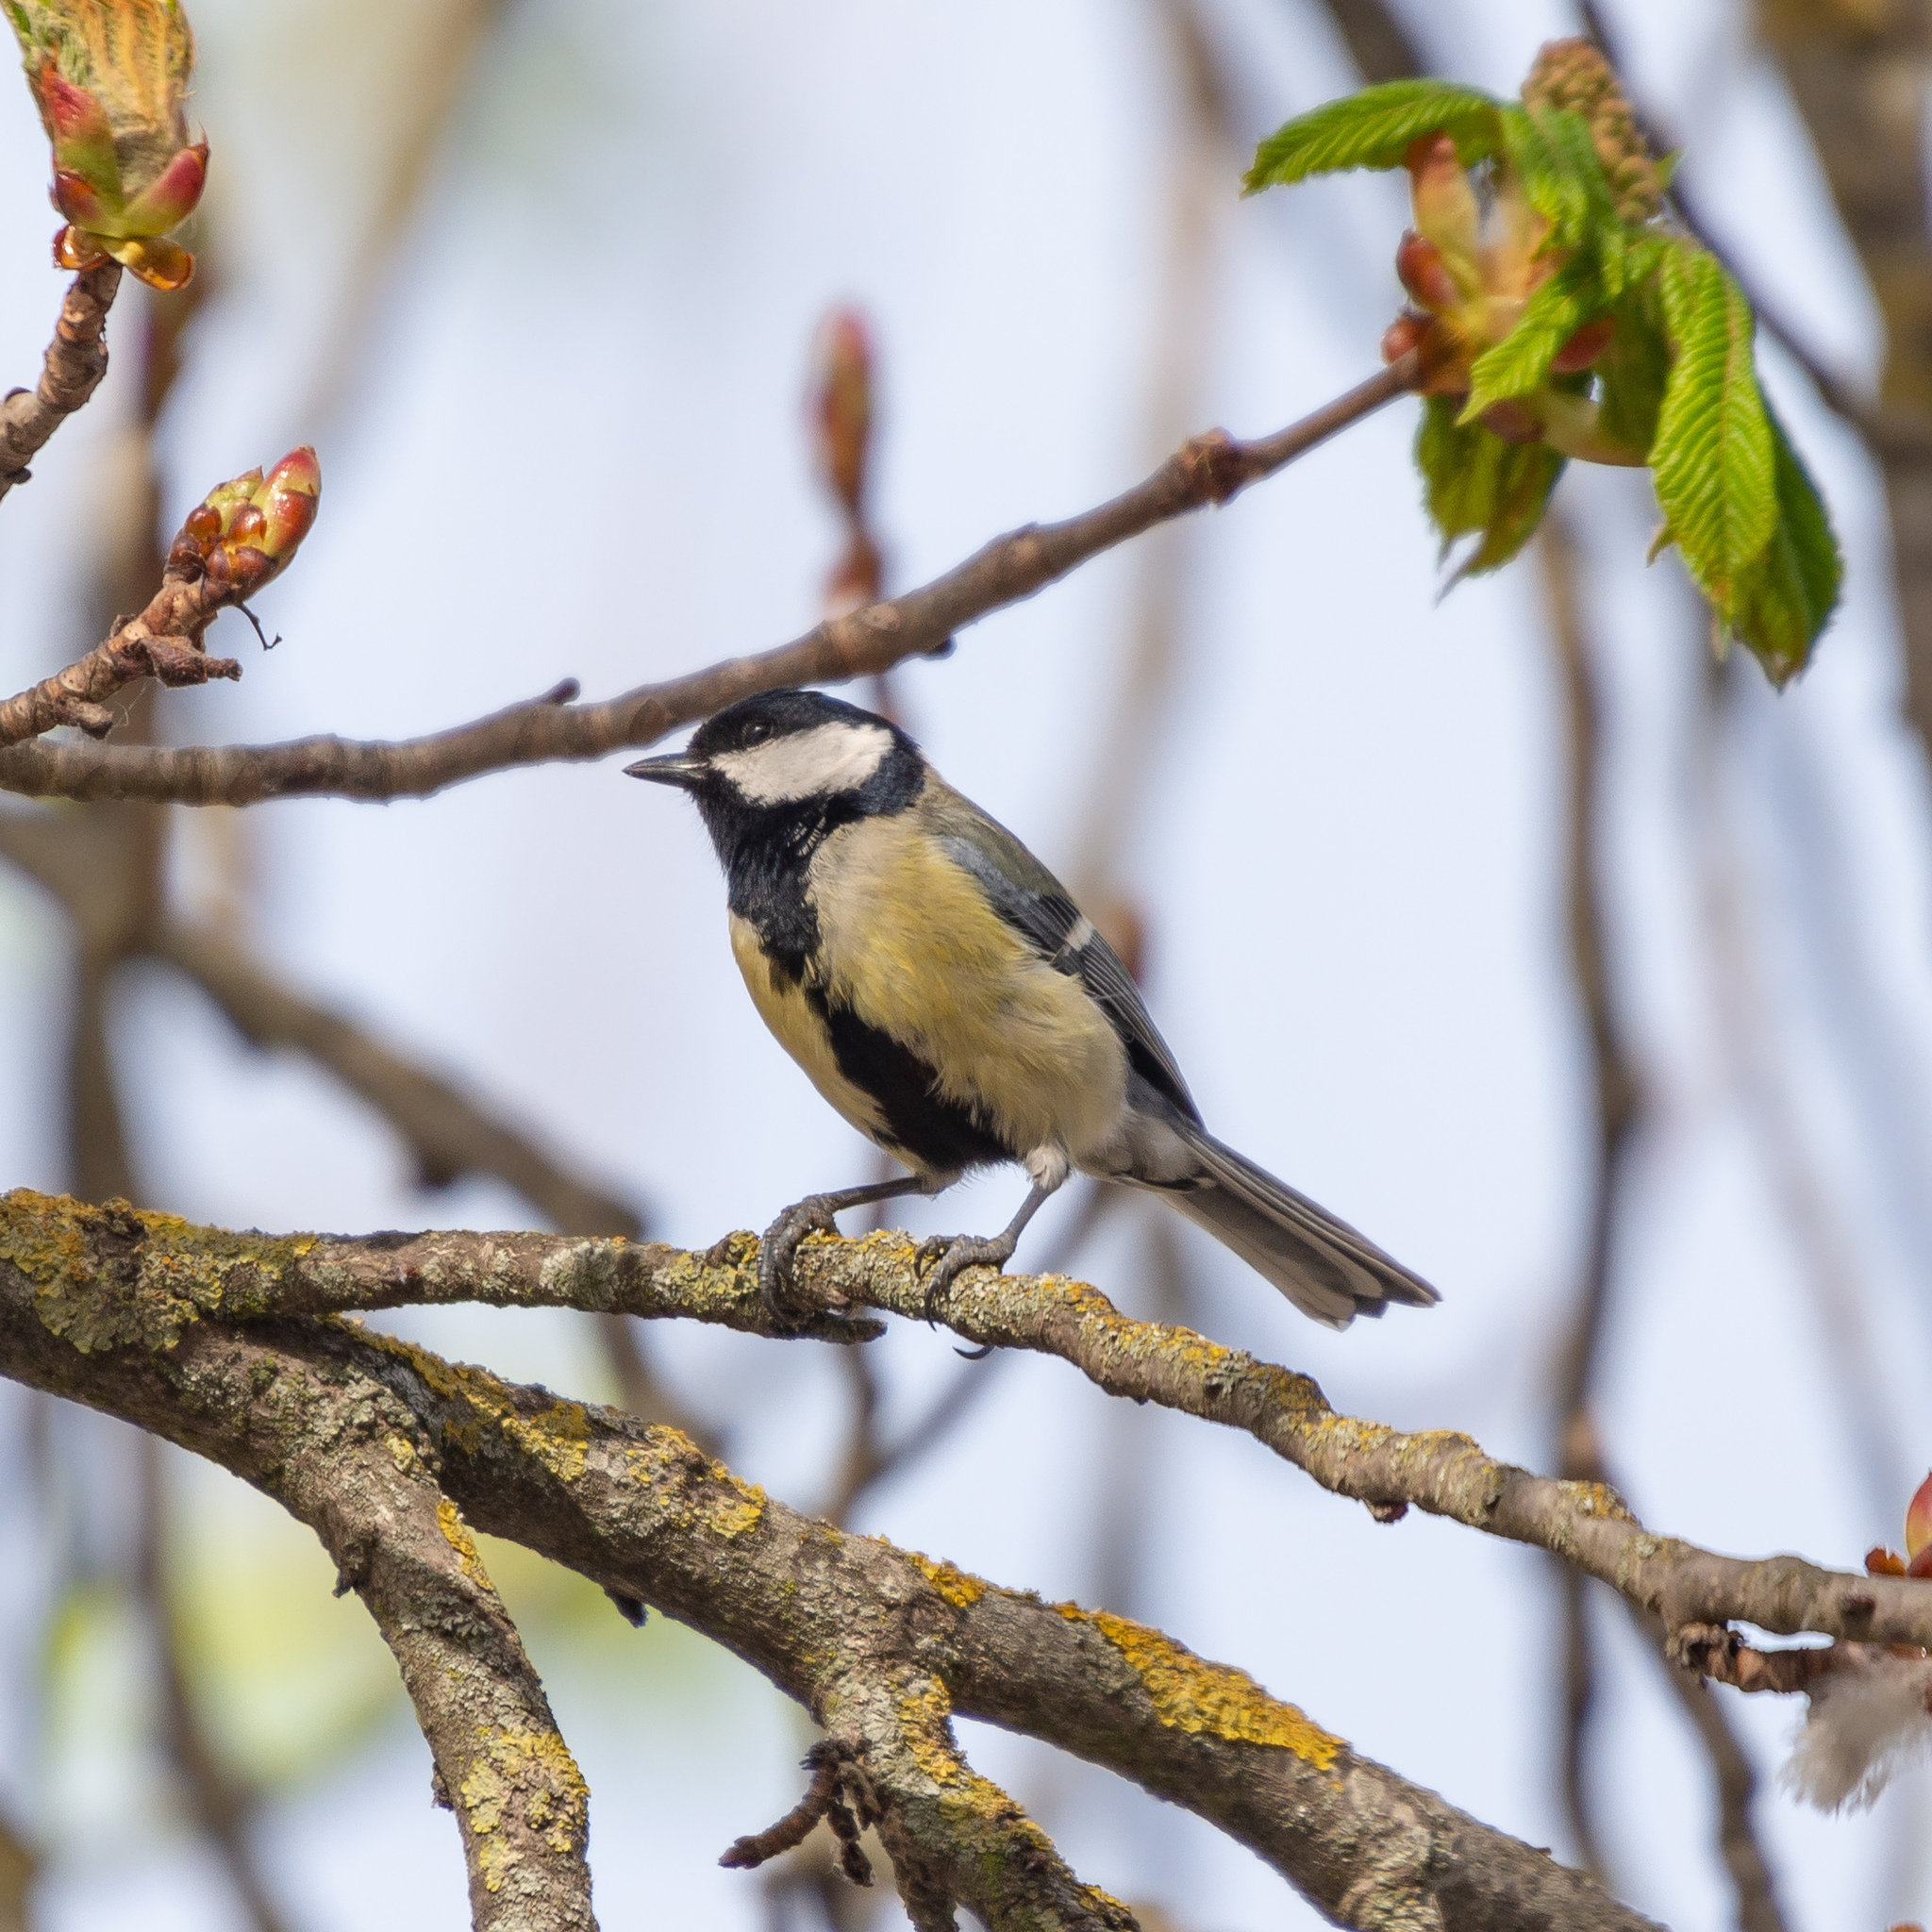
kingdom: Animalia
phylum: Chordata
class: Aves
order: Passeriformes
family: Paridae
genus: Parus
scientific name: Parus major
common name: Great tit
